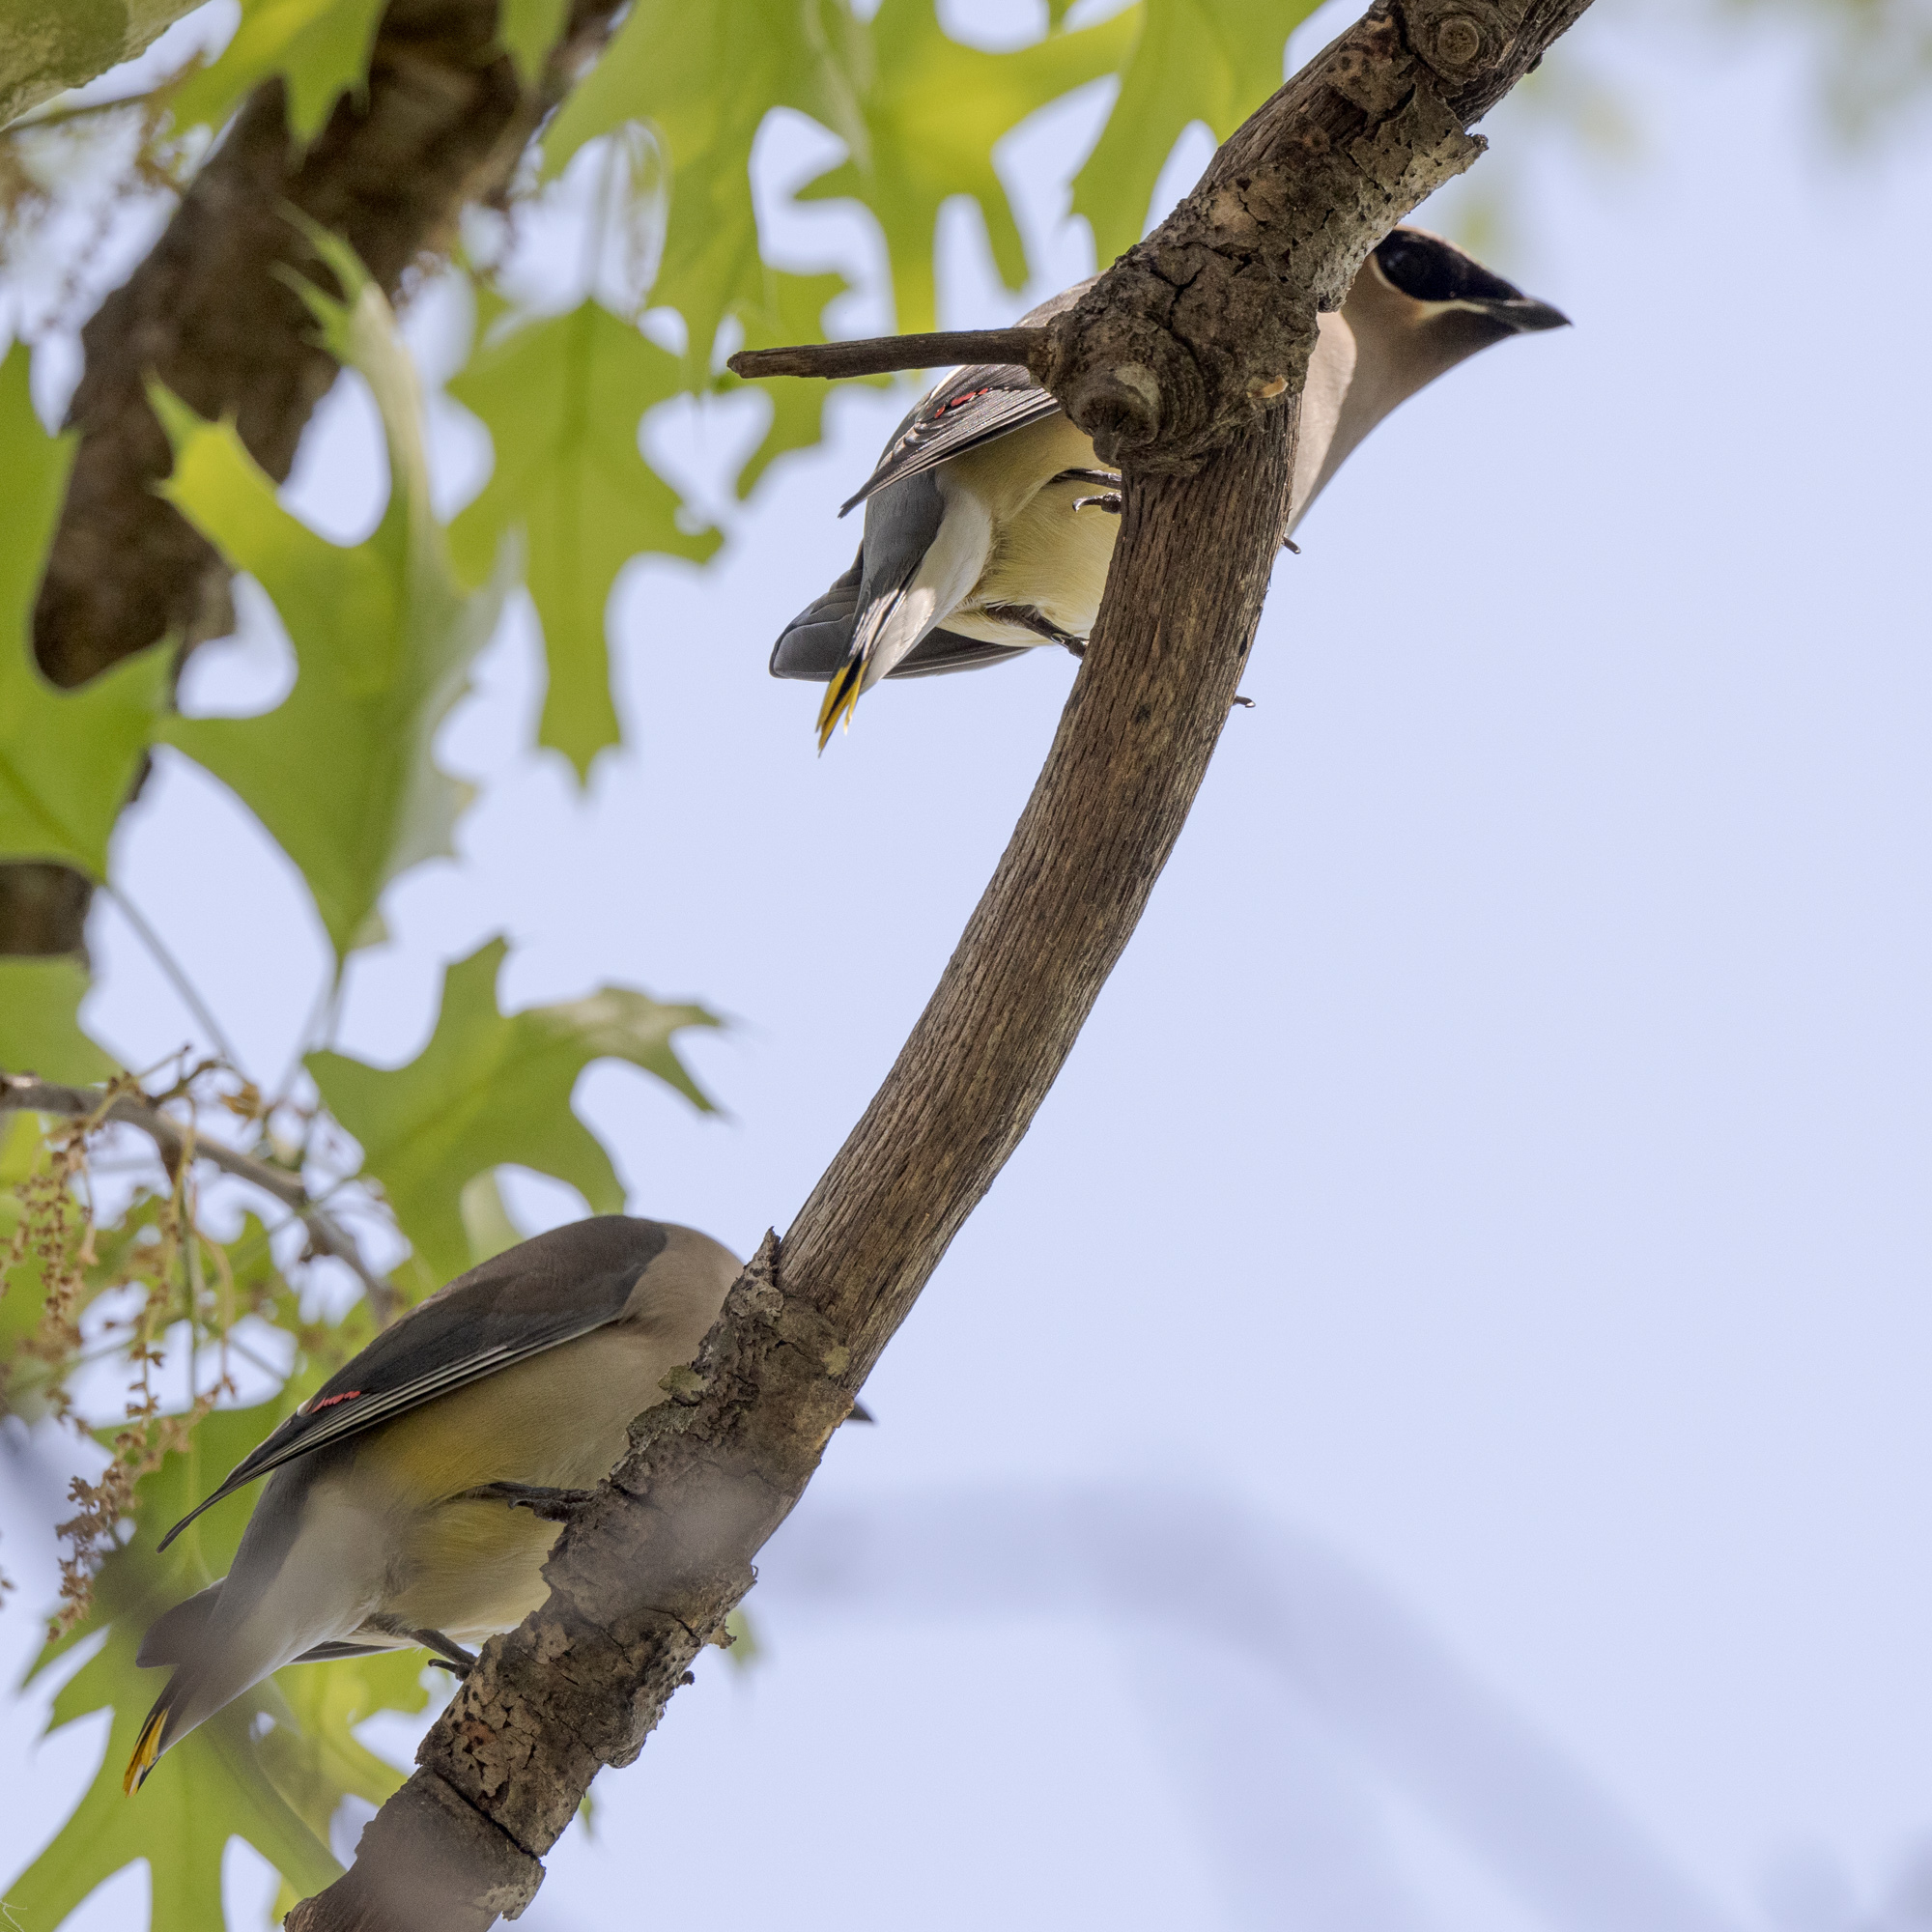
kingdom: Animalia
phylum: Chordata
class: Aves
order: Passeriformes
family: Bombycillidae
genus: Bombycilla
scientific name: Bombycilla cedrorum
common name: Cedar waxwing
